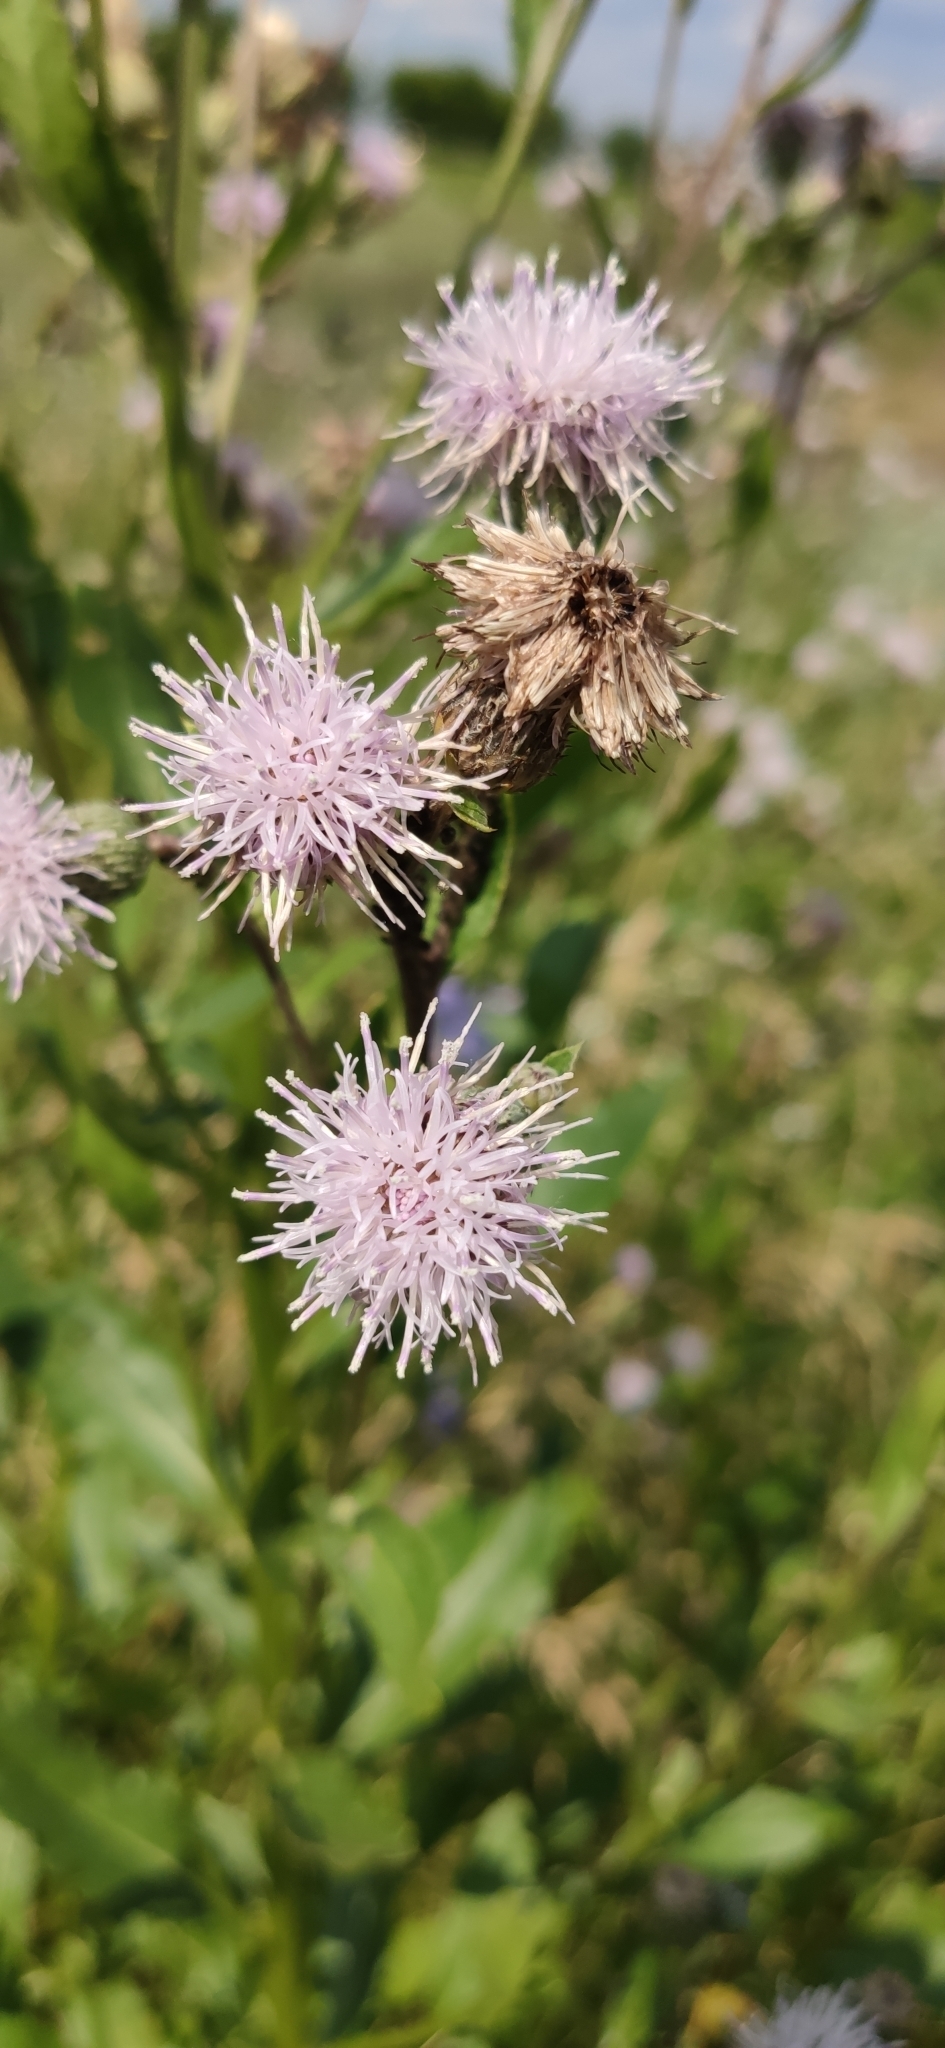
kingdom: Plantae
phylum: Tracheophyta
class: Magnoliopsida
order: Asterales
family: Asteraceae
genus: Cirsium
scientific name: Cirsium arvense
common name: Creeping thistle
